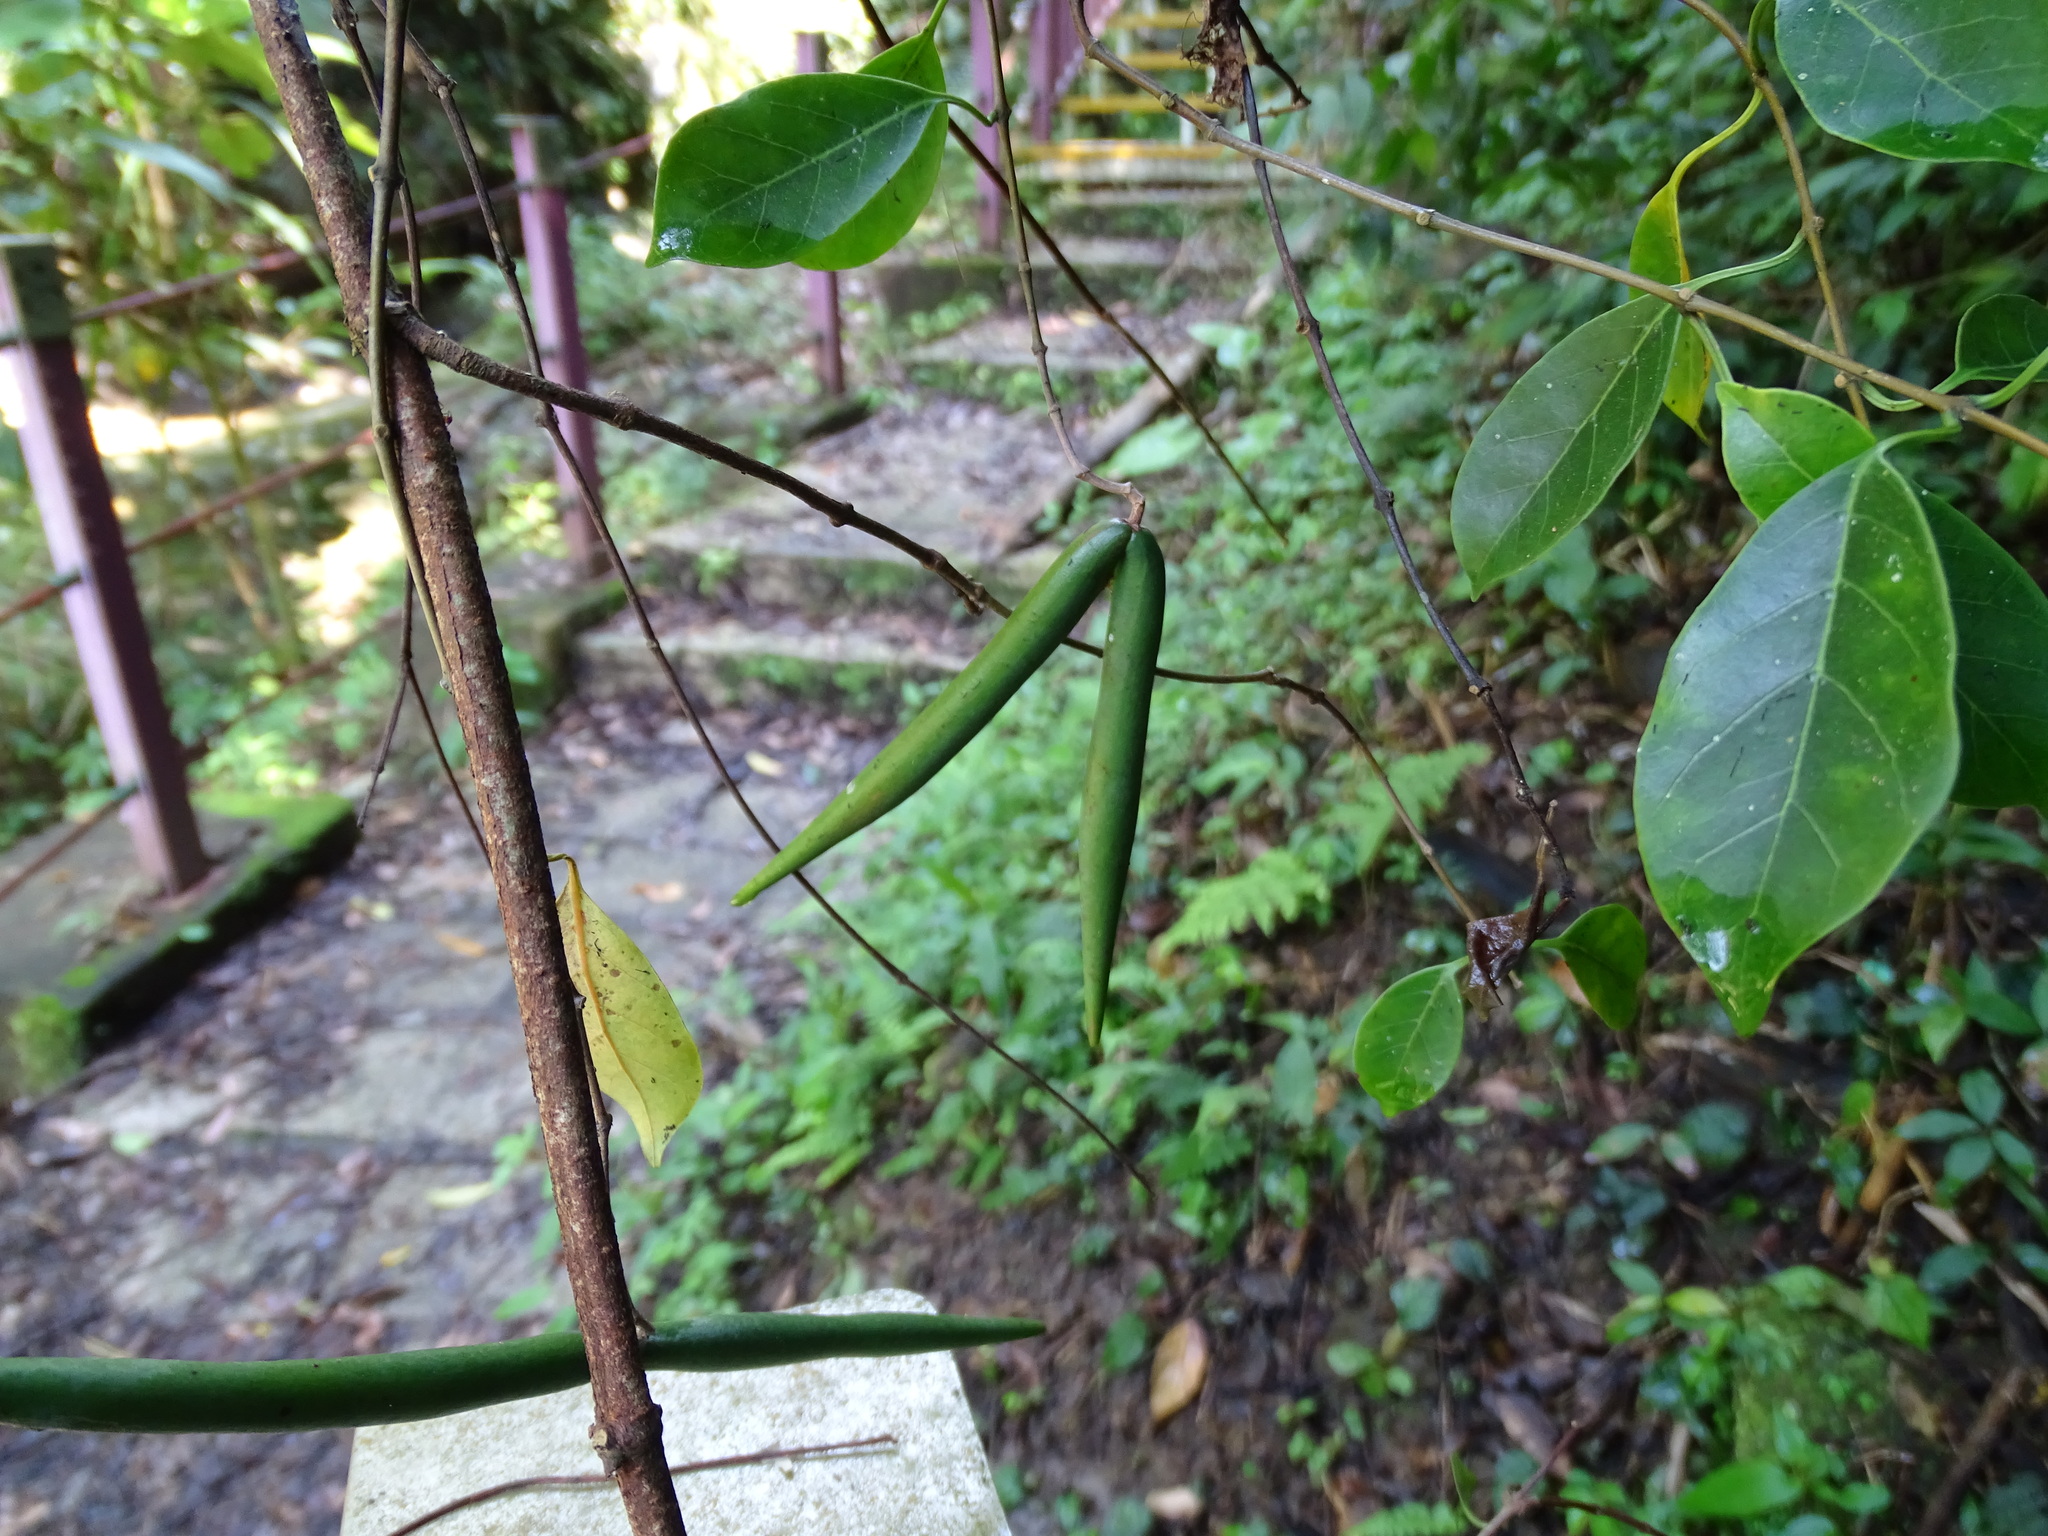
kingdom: Plantae
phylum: Tracheophyta
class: Magnoliopsida
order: Gentianales
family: Apocynaceae
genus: Urceola
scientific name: Urceola rosea
